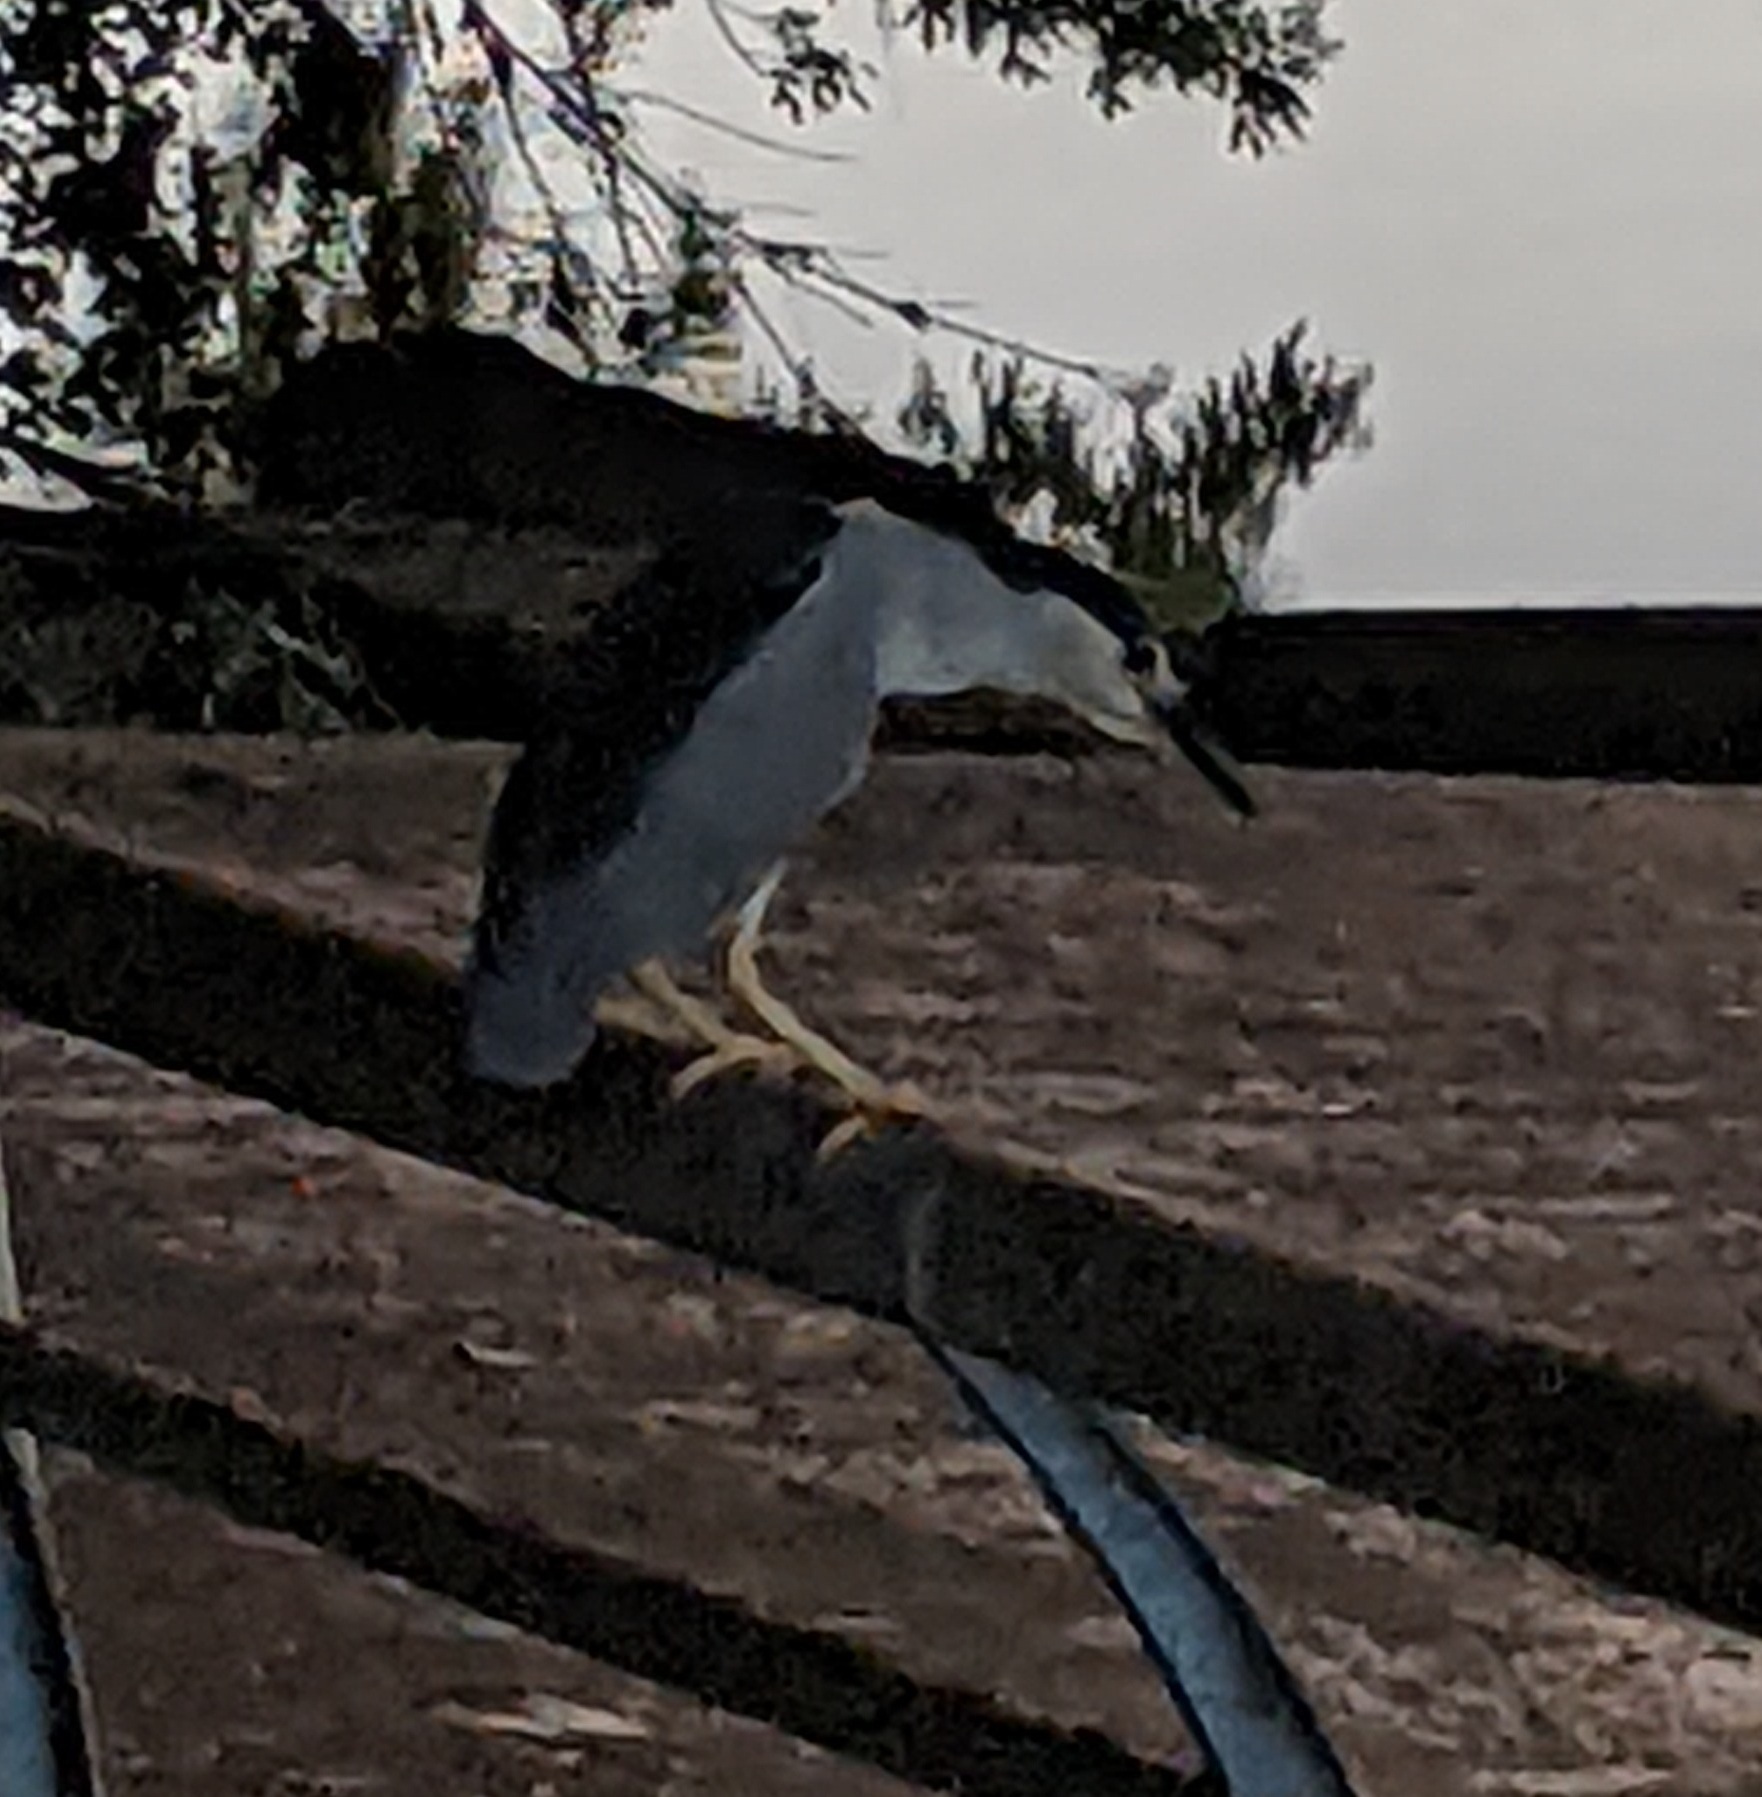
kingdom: Animalia
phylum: Chordata
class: Aves
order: Pelecaniformes
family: Ardeidae
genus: Nycticorax
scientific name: Nycticorax nycticorax
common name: Black-crowned night heron
